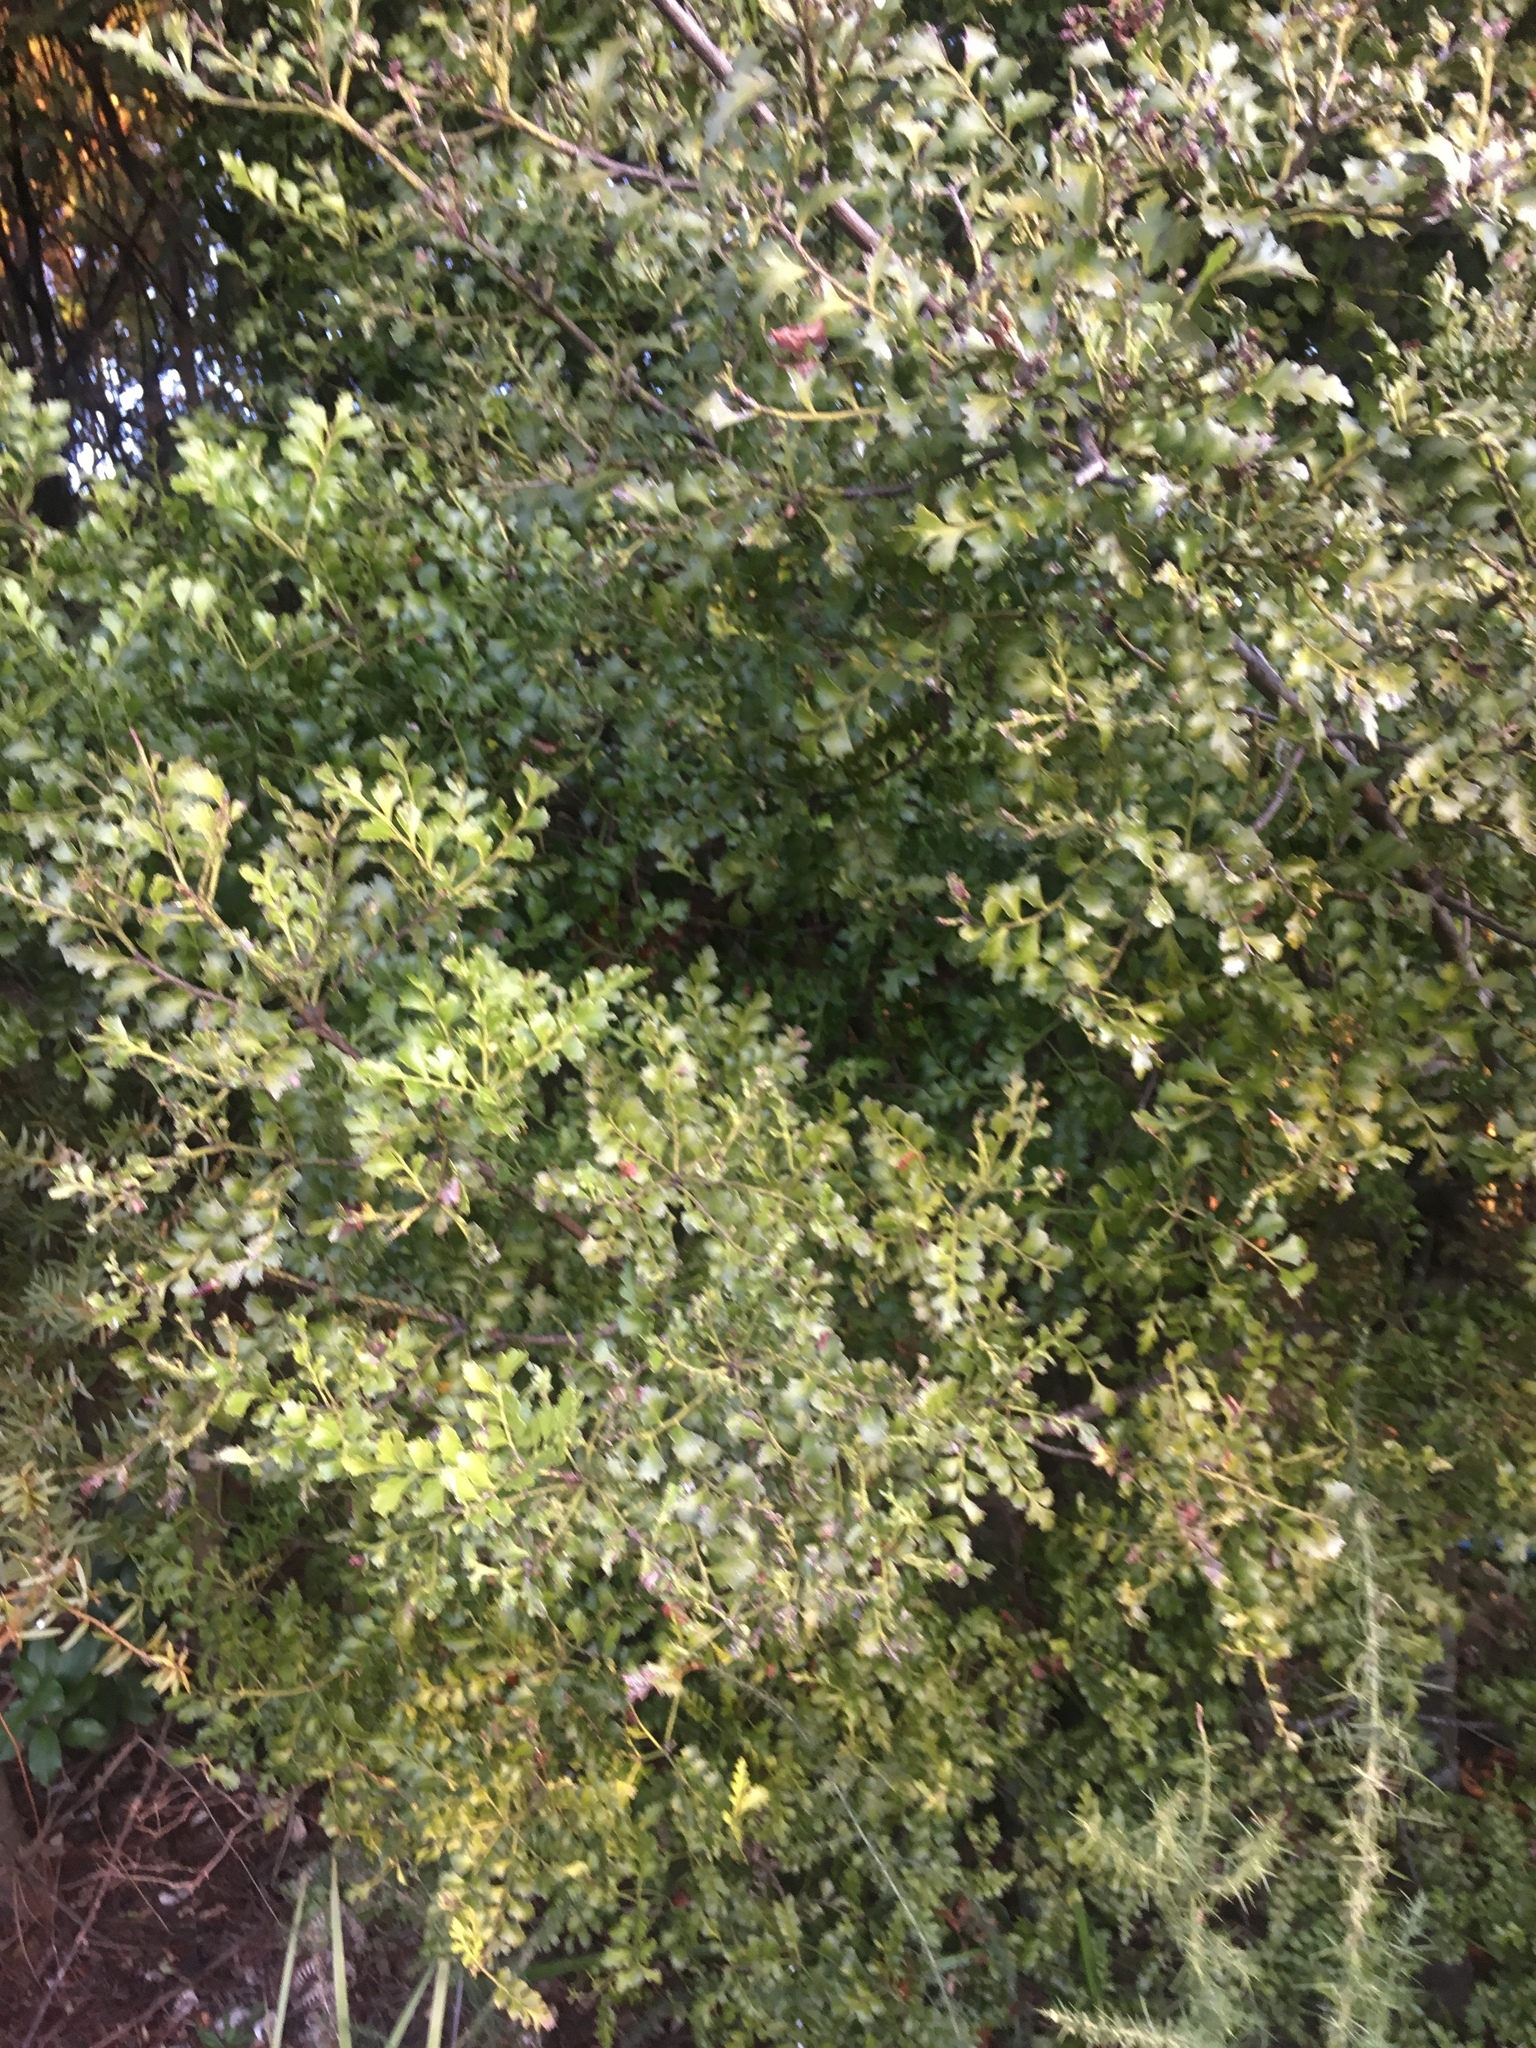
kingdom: Plantae
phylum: Tracheophyta
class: Pinopsida
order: Pinales
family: Phyllocladaceae
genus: Phyllocladus
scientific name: Phyllocladus trichomanoides
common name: Celery pine
